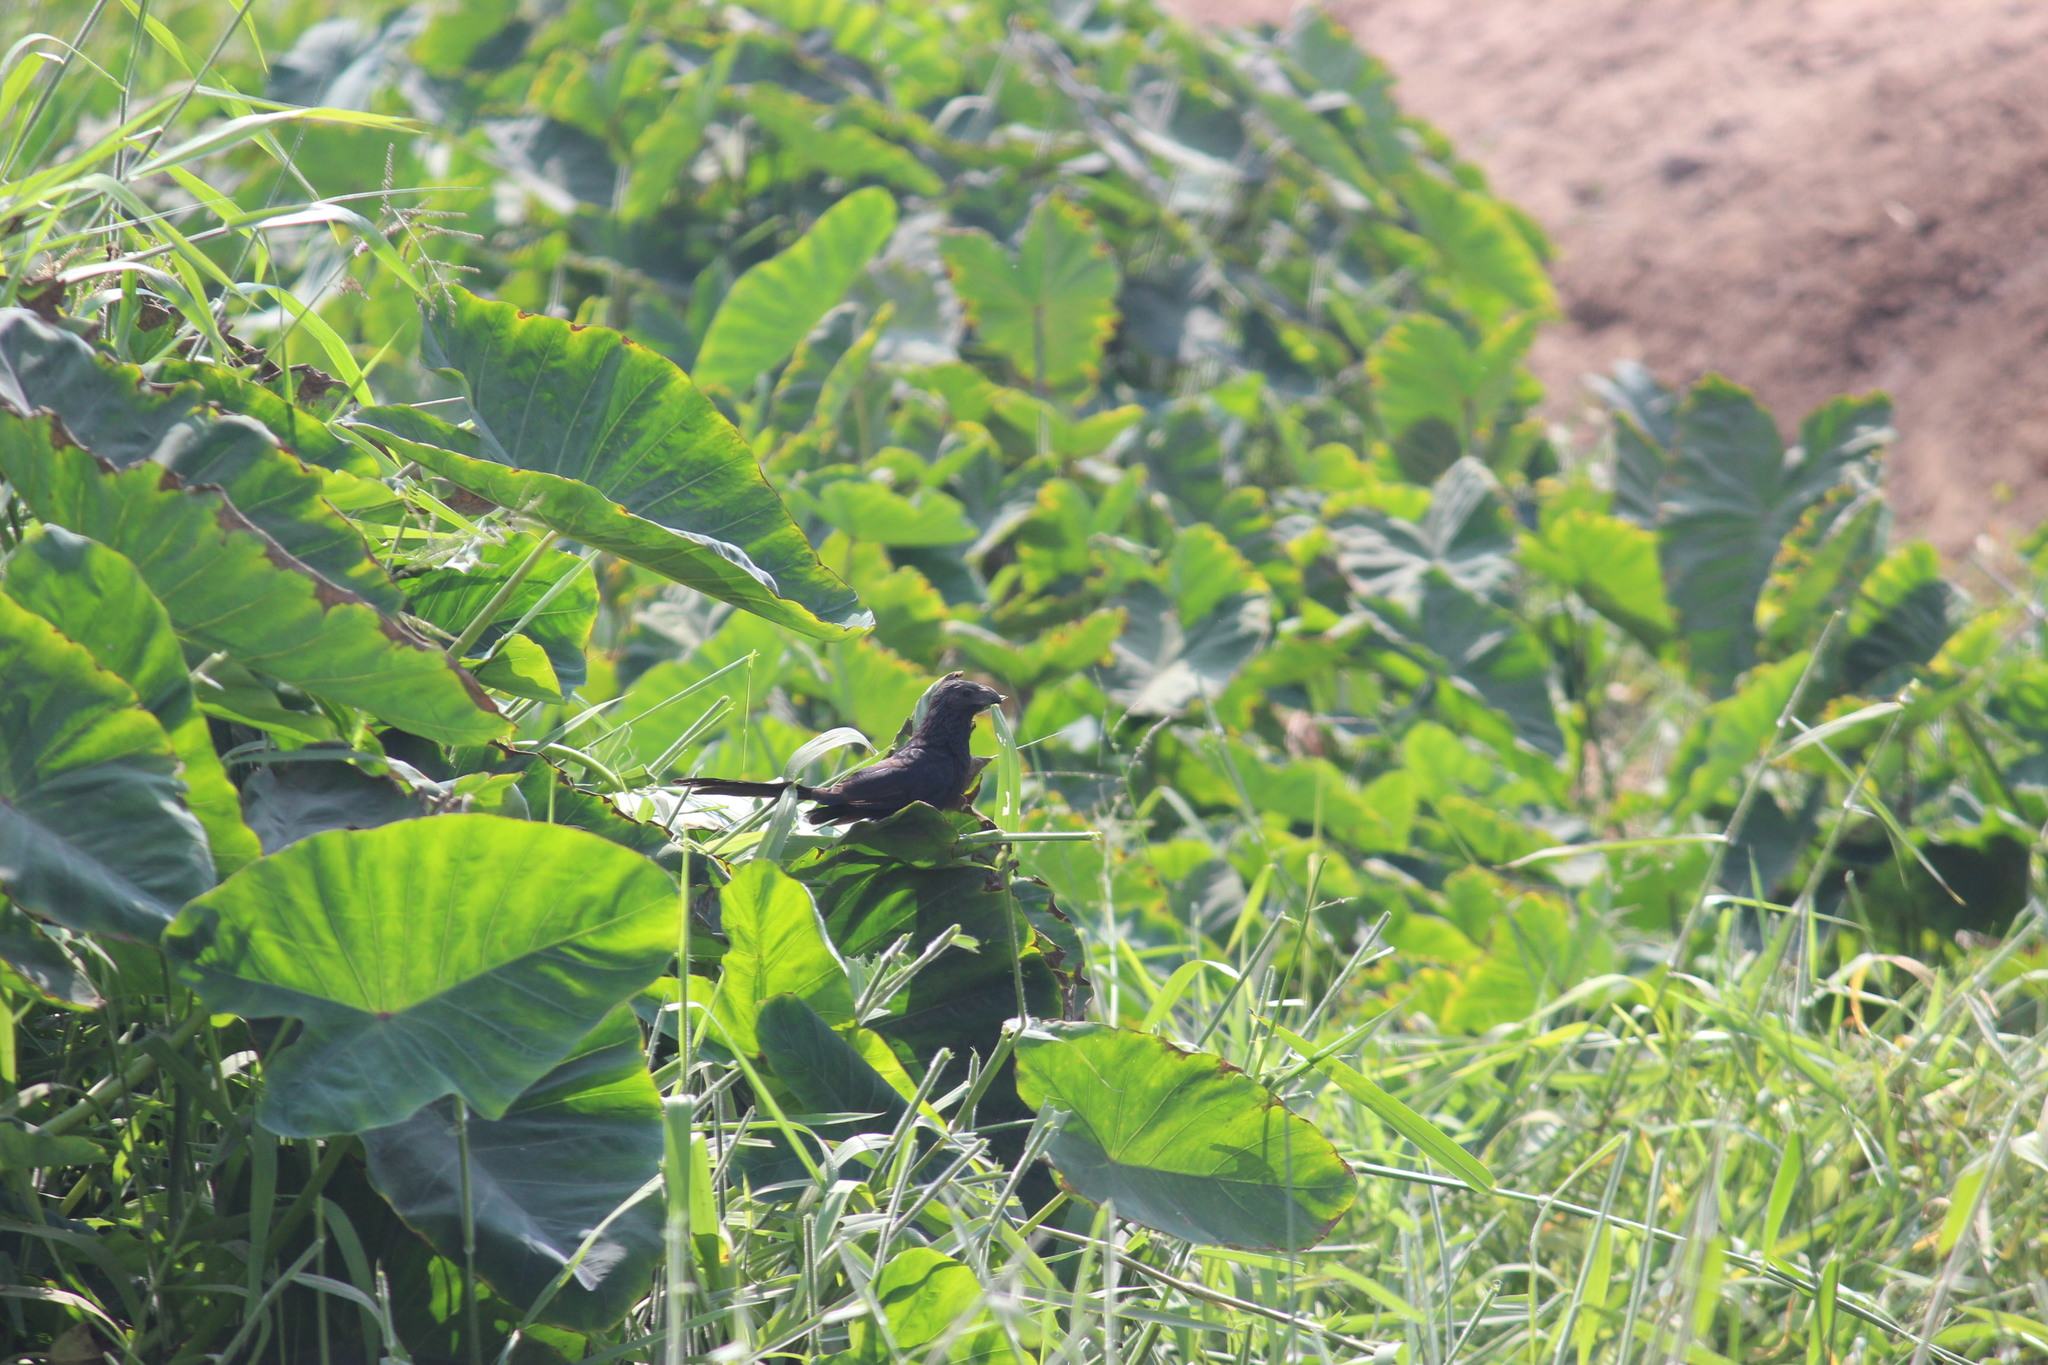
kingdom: Animalia
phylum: Chordata
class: Aves
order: Cuculiformes
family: Cuculidae
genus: Crotophaga
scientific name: Crotophaga sulcirostris
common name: Groove-billed ani
